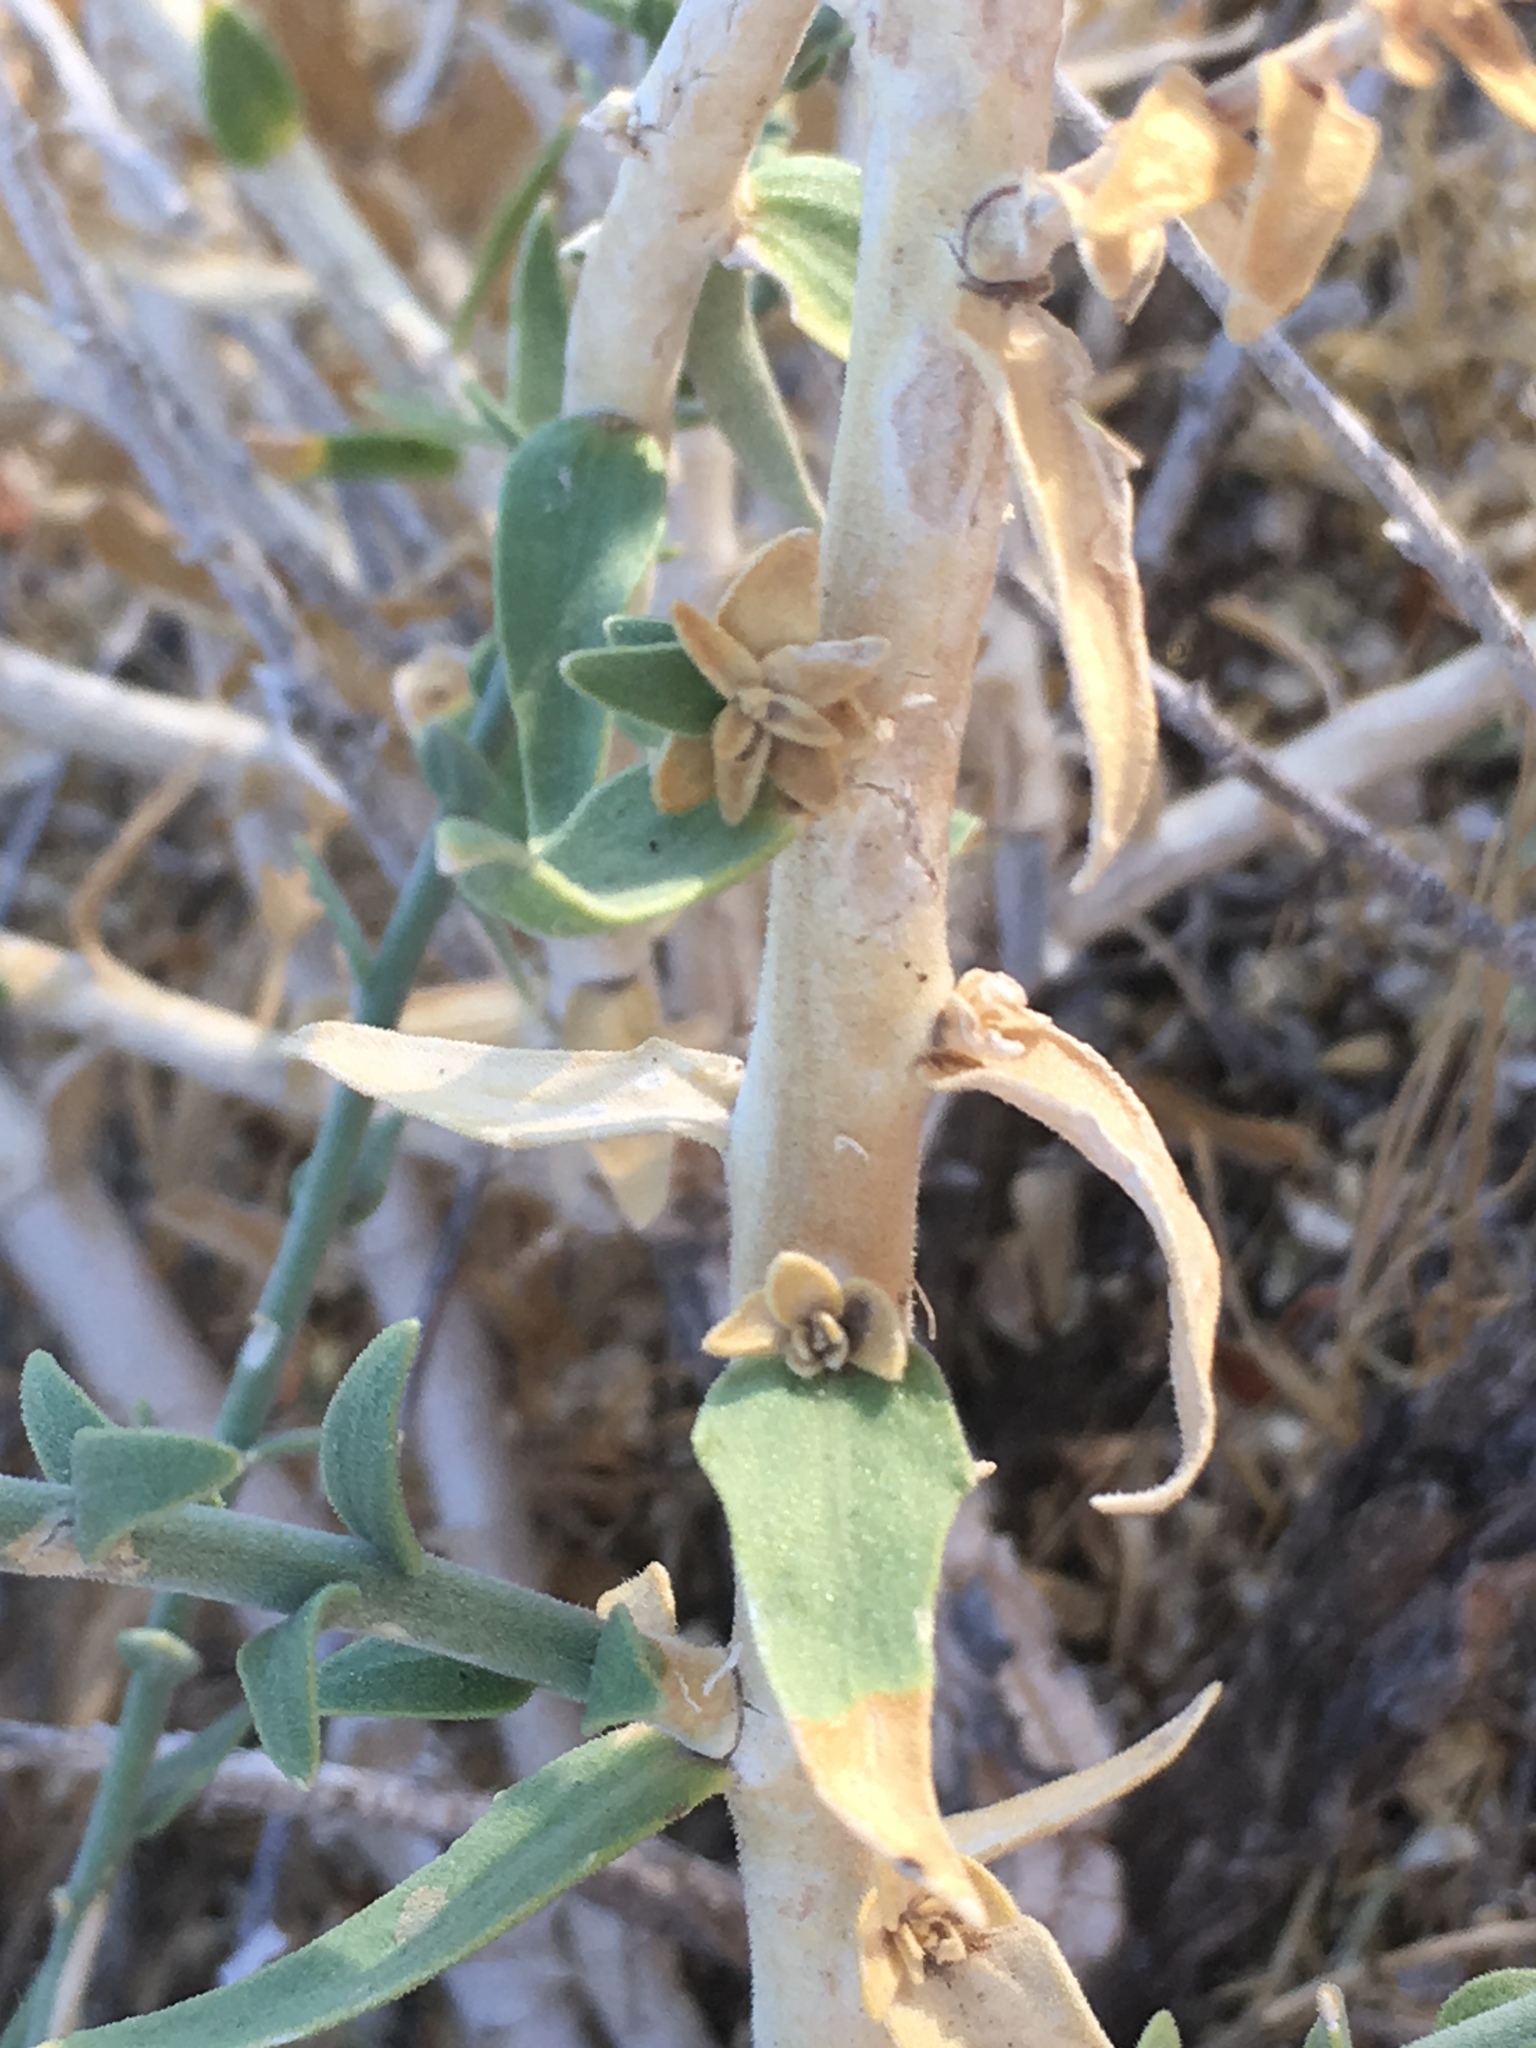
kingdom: Plantae
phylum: Tracheophyta
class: Magnoliopsida
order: Cornales
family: Loasaceae
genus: Petalonyx
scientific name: Petalonyx thurberi
